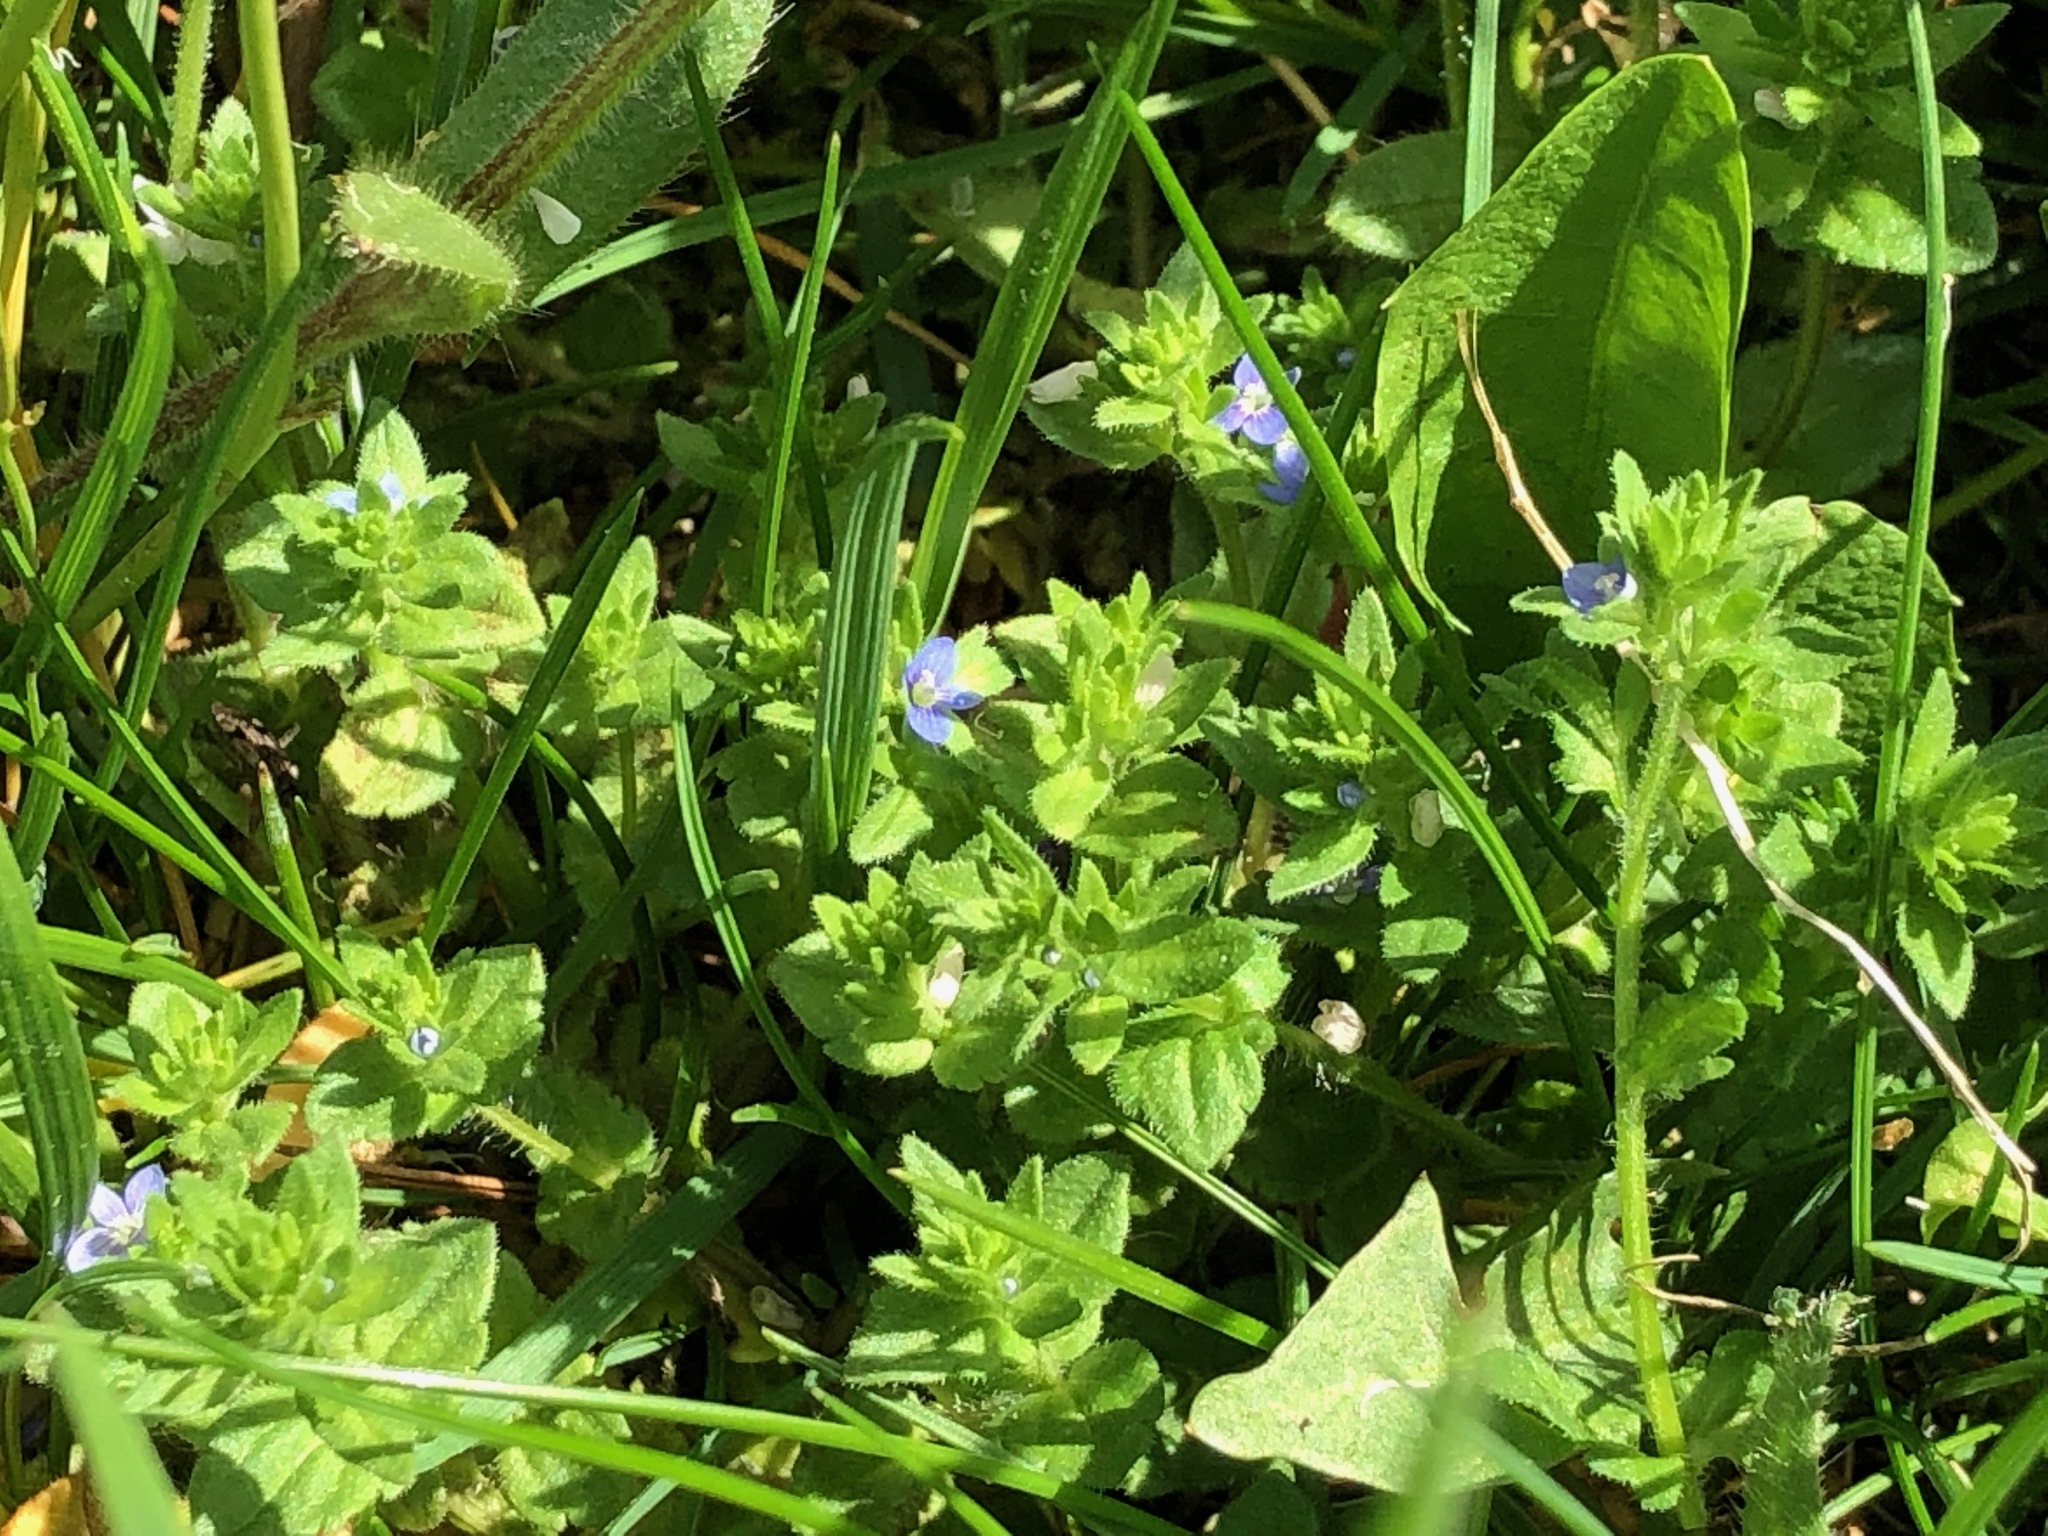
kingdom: Plantae
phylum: Tracheophyta
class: Magnoliopsida
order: Lamiales
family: Plantaginaceae
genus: Veronica
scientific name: Veronica arvensis
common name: Corn speedwell
